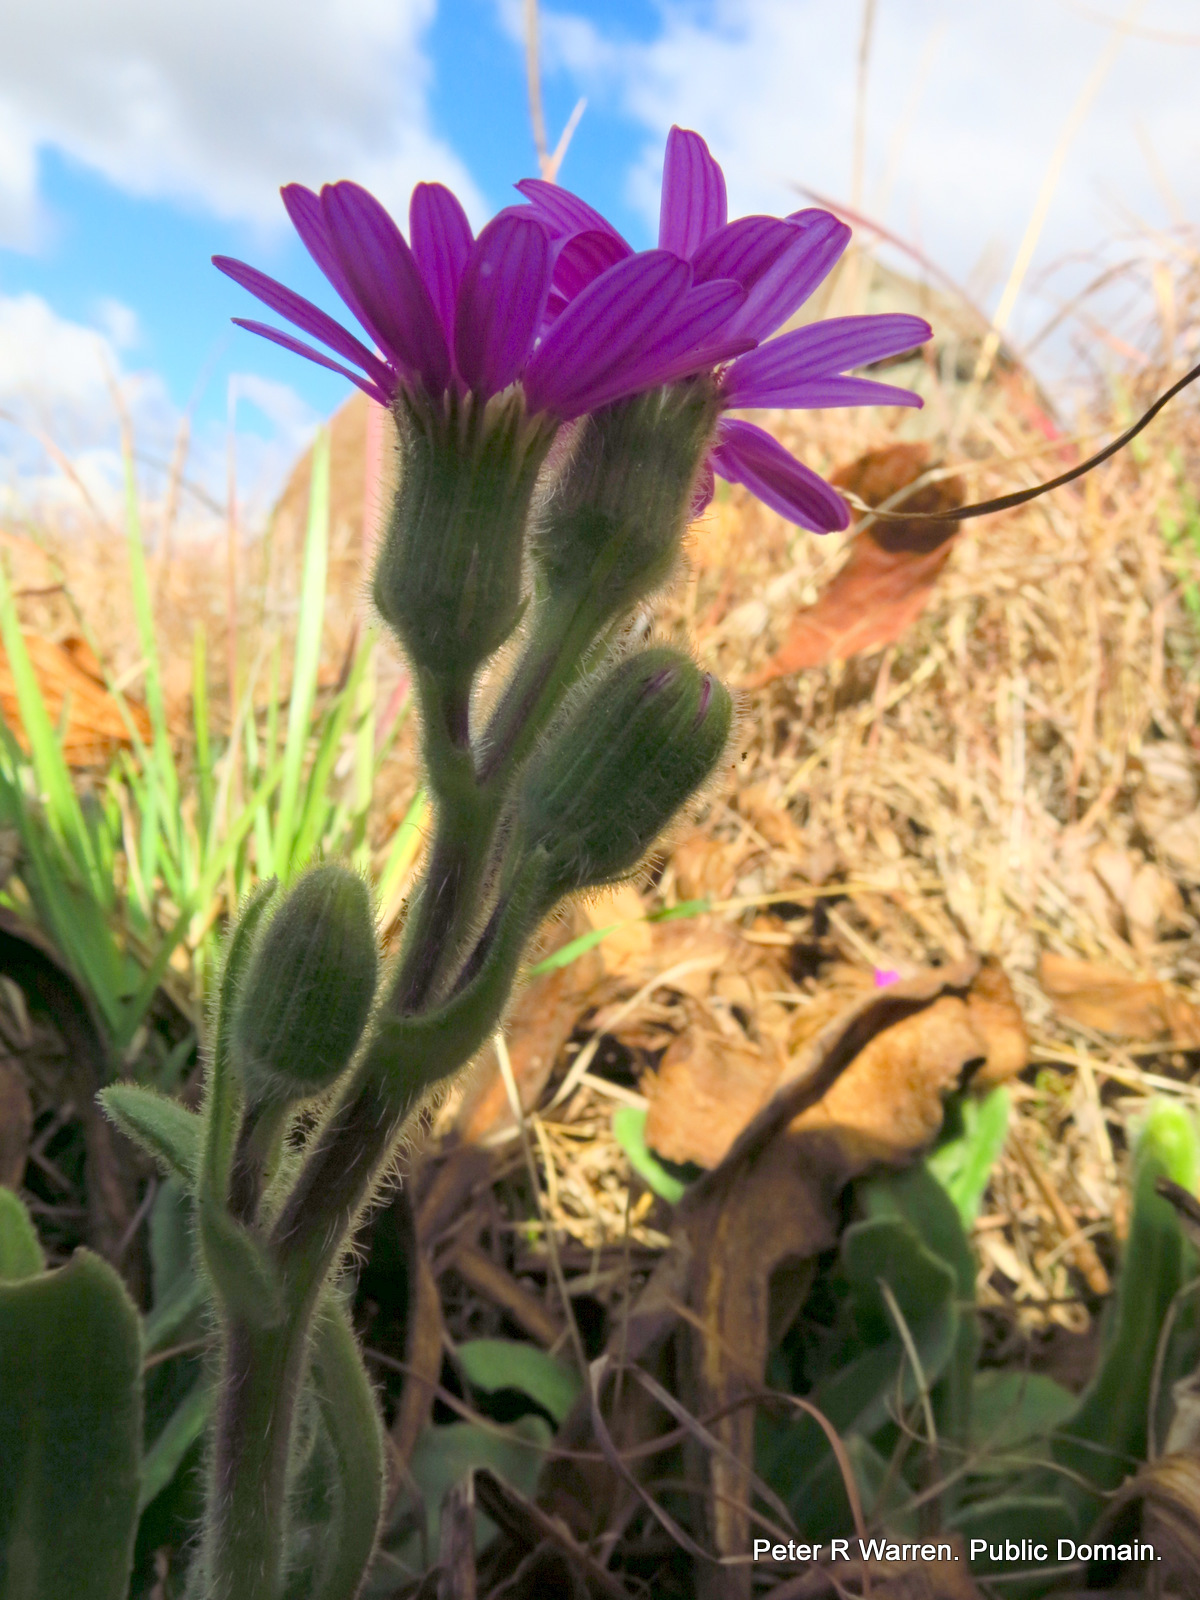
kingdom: Plantae
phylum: Tracheophyta
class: Magnoliopsida
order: Asterales
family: Asteraceae
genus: Senecio
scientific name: Senecio macrocephalus
